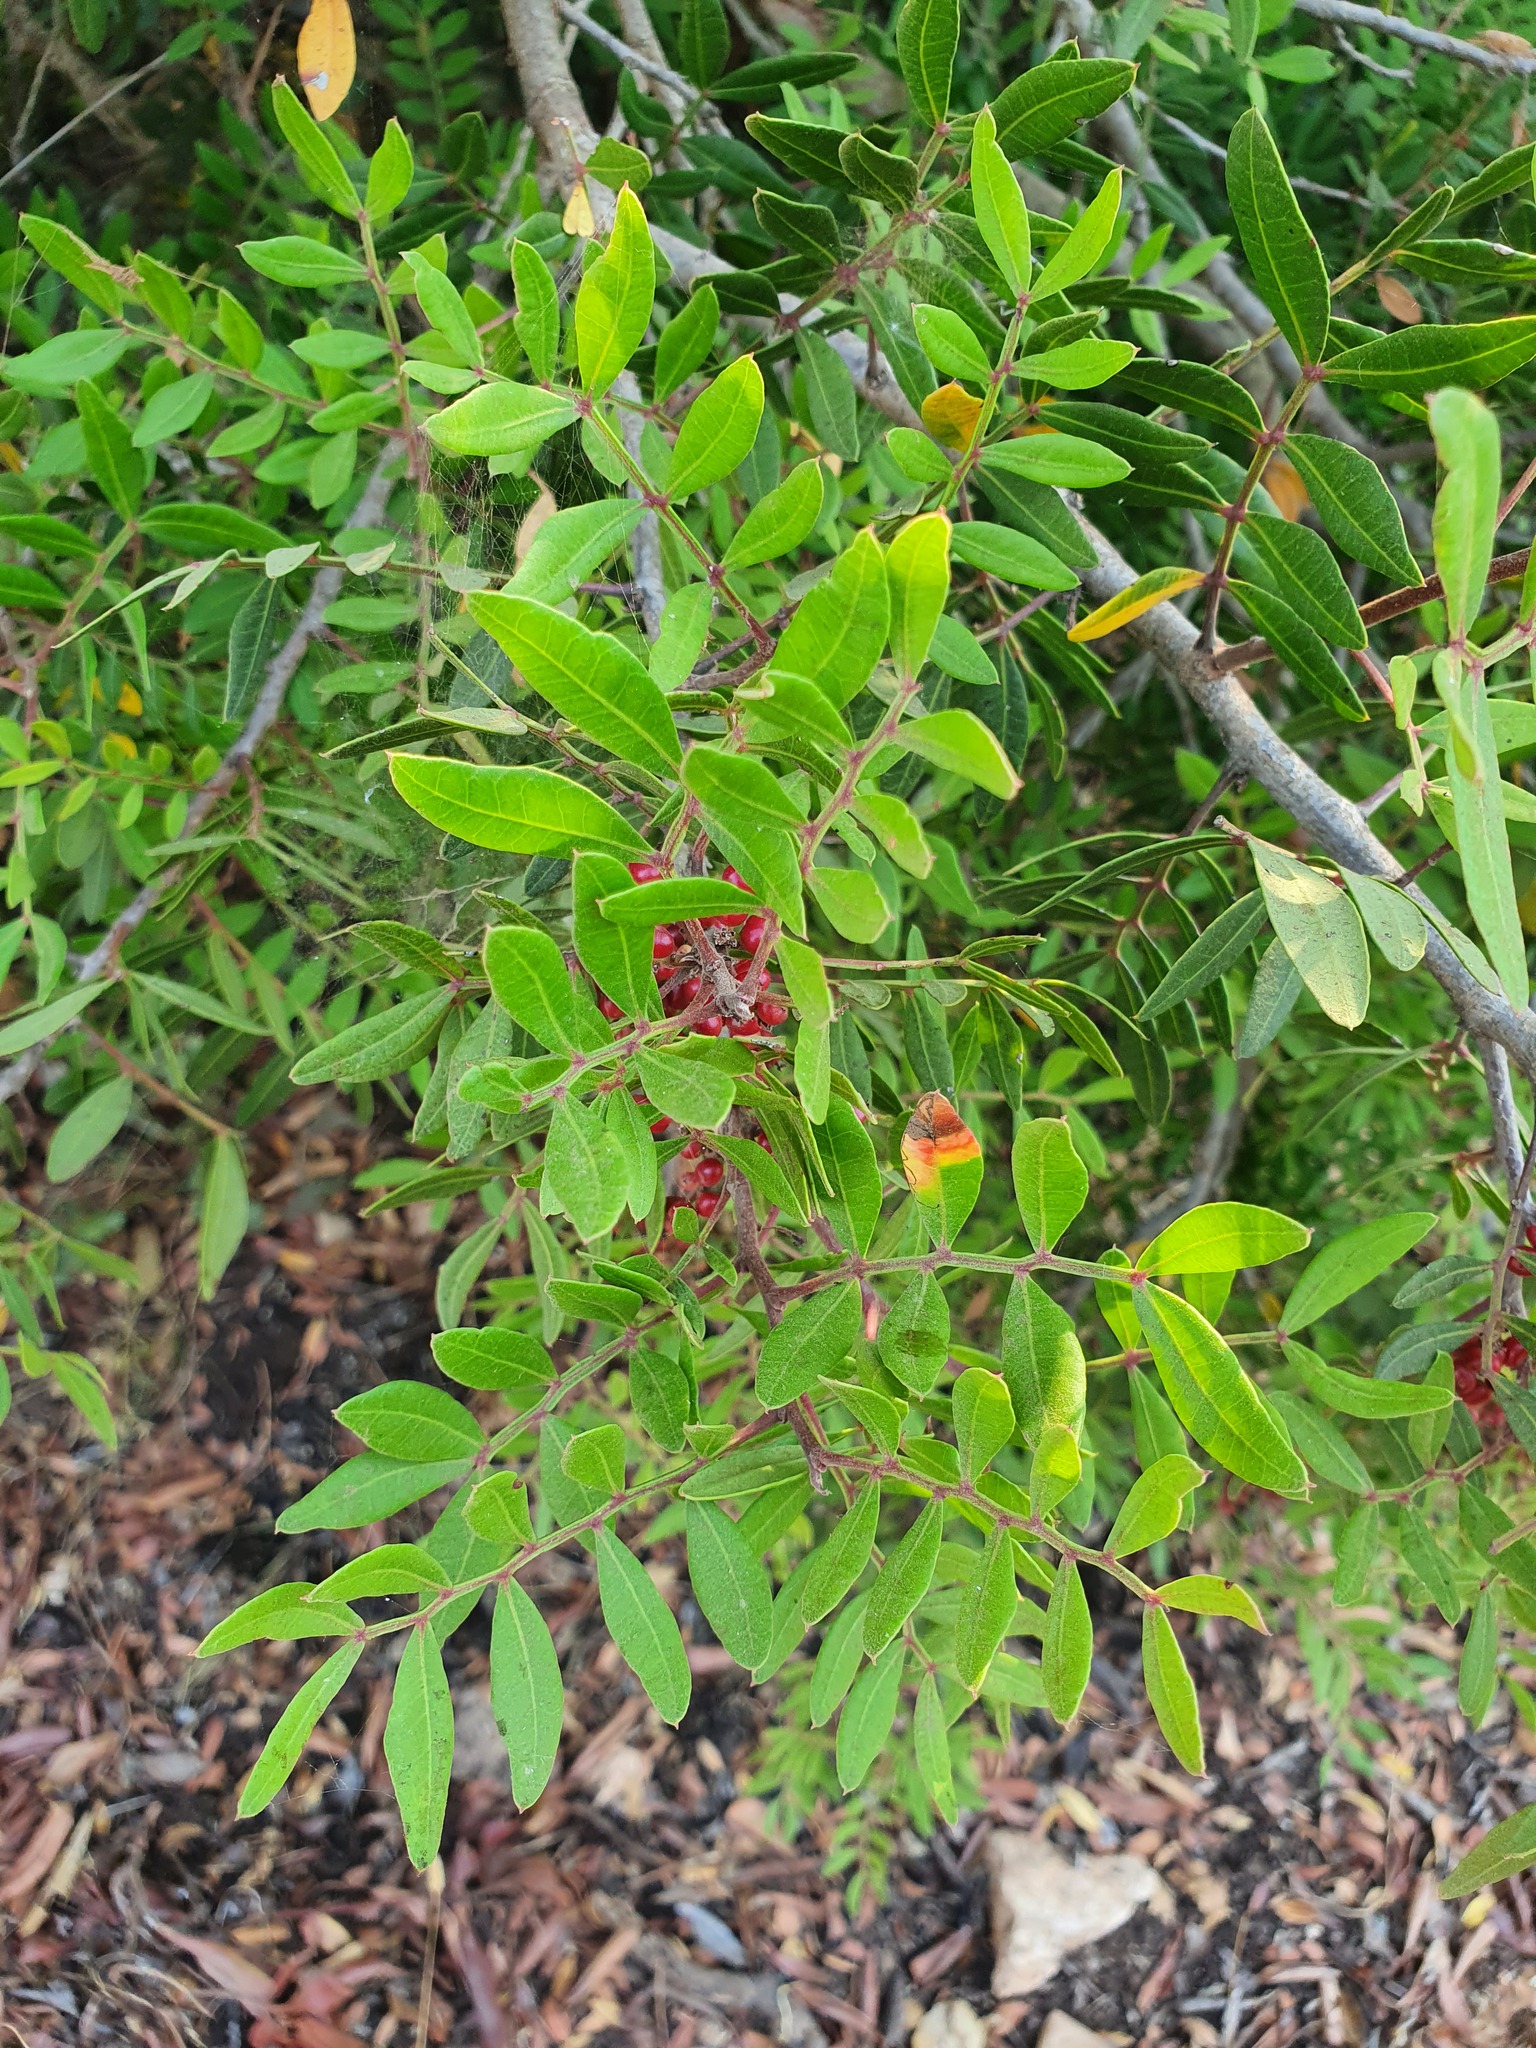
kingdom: Plantae
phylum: Tracheophyta
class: Magnoliopsida
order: Sapindales
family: Anacardiaceae
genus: Pistacia
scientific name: Pistacia lentiscus
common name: Lentisk
